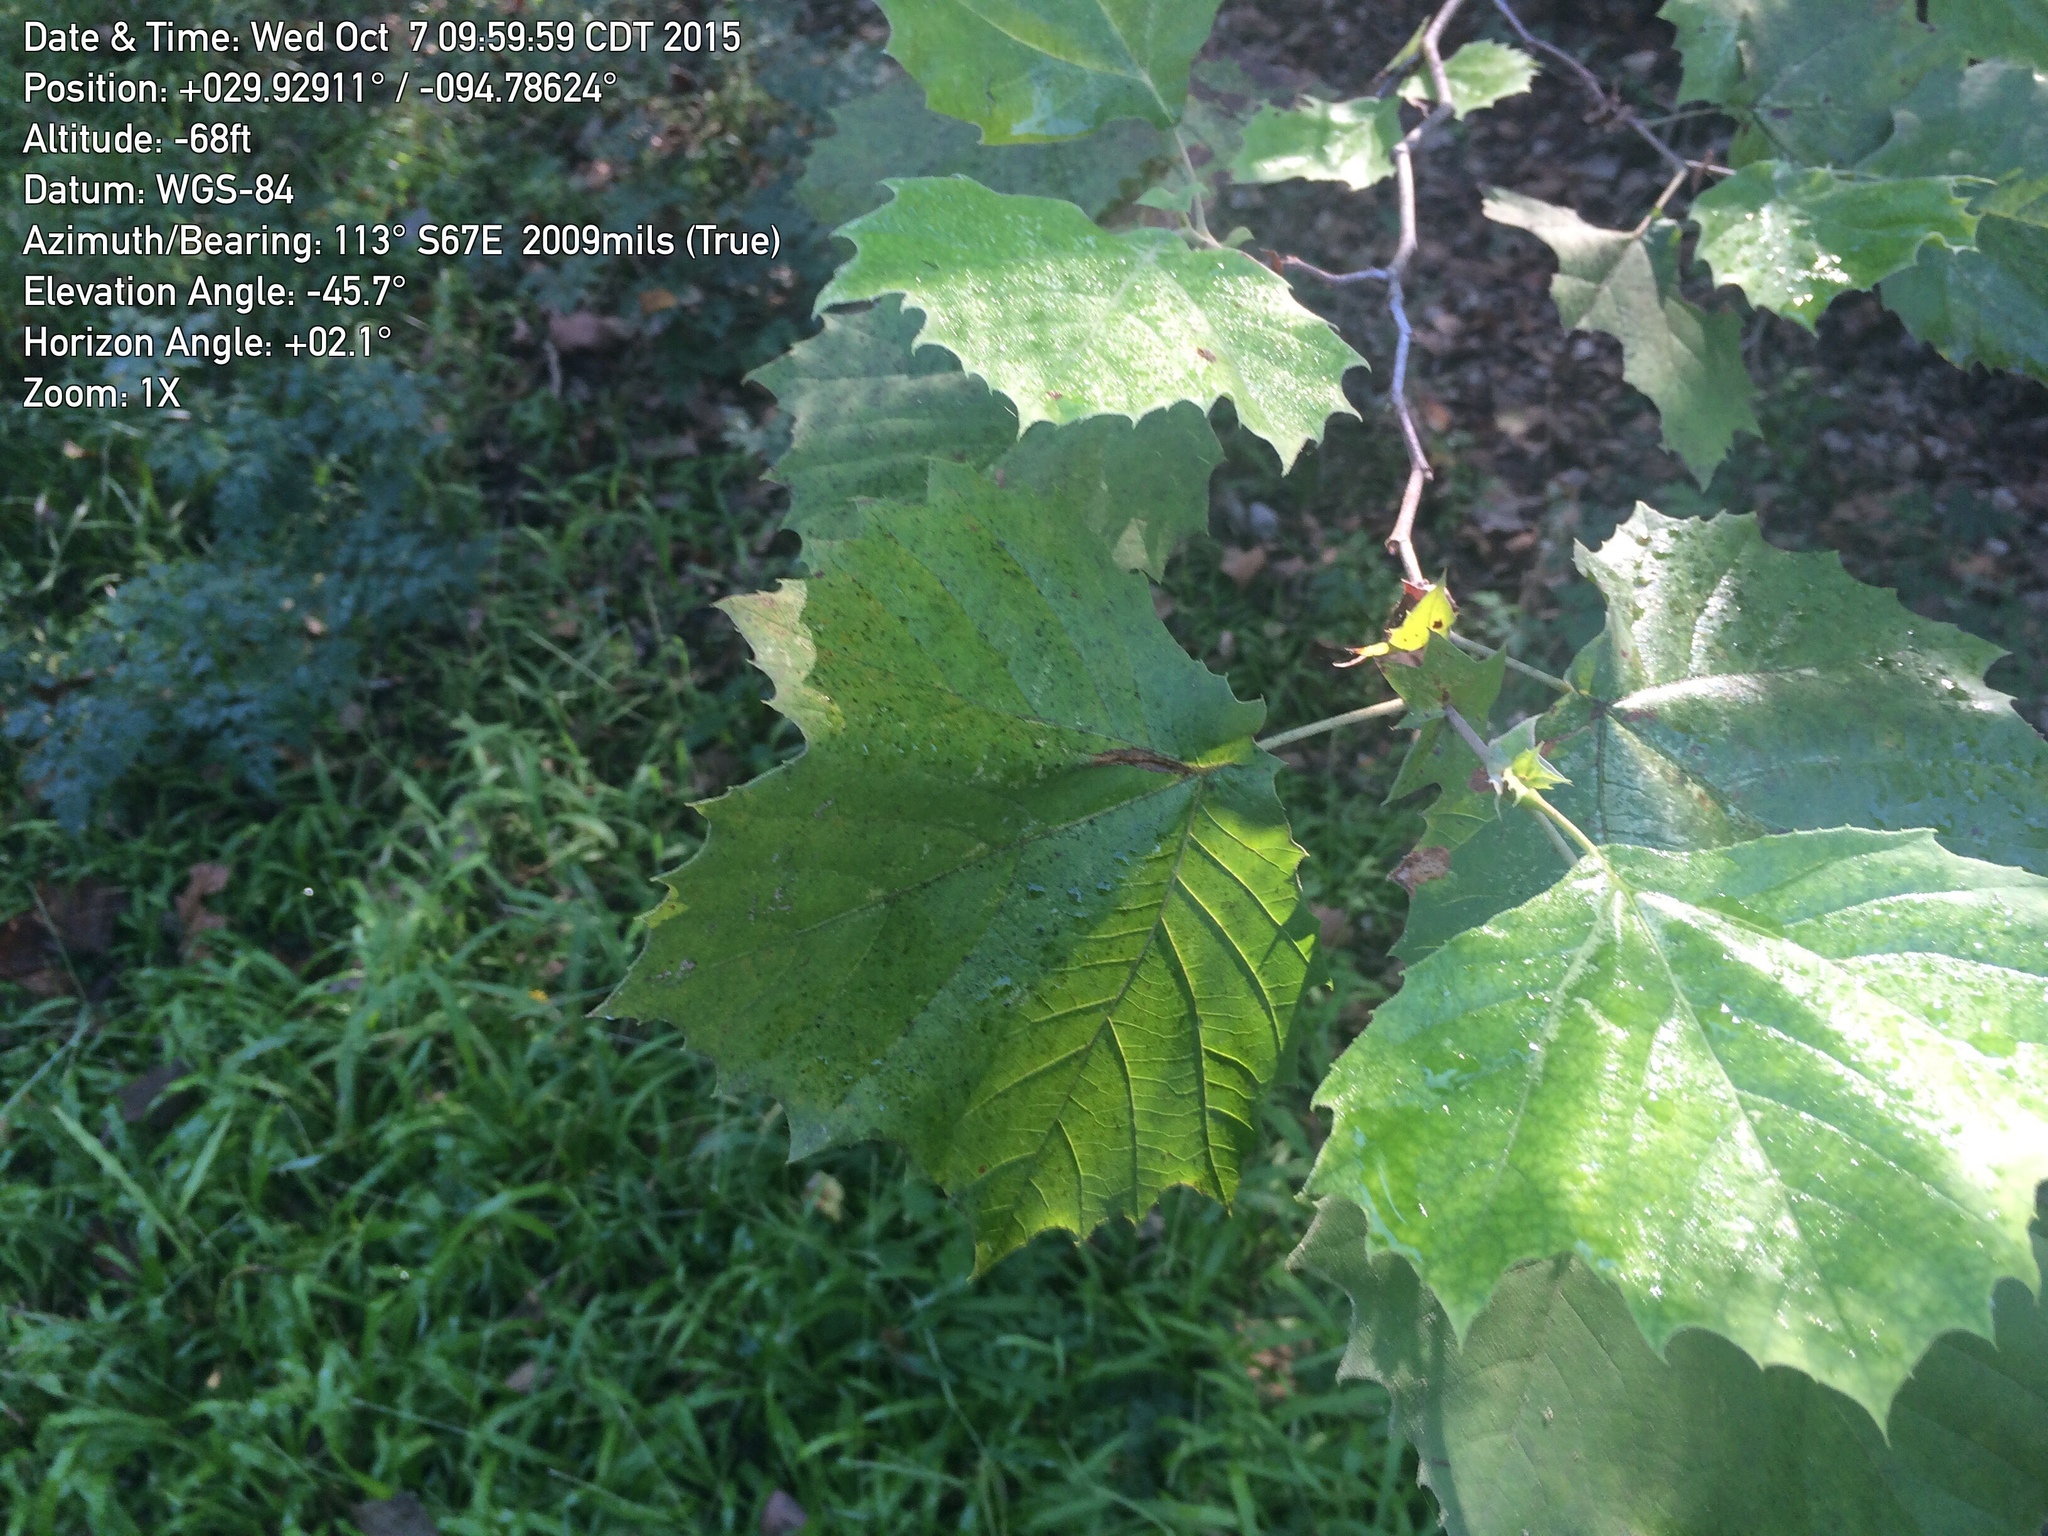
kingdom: Plantae
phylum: Tracheophyta
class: Magnoliopsida
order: Proteales
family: Platanaceae
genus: Platanus
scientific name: Platanus occidentalis
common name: American sycamore
